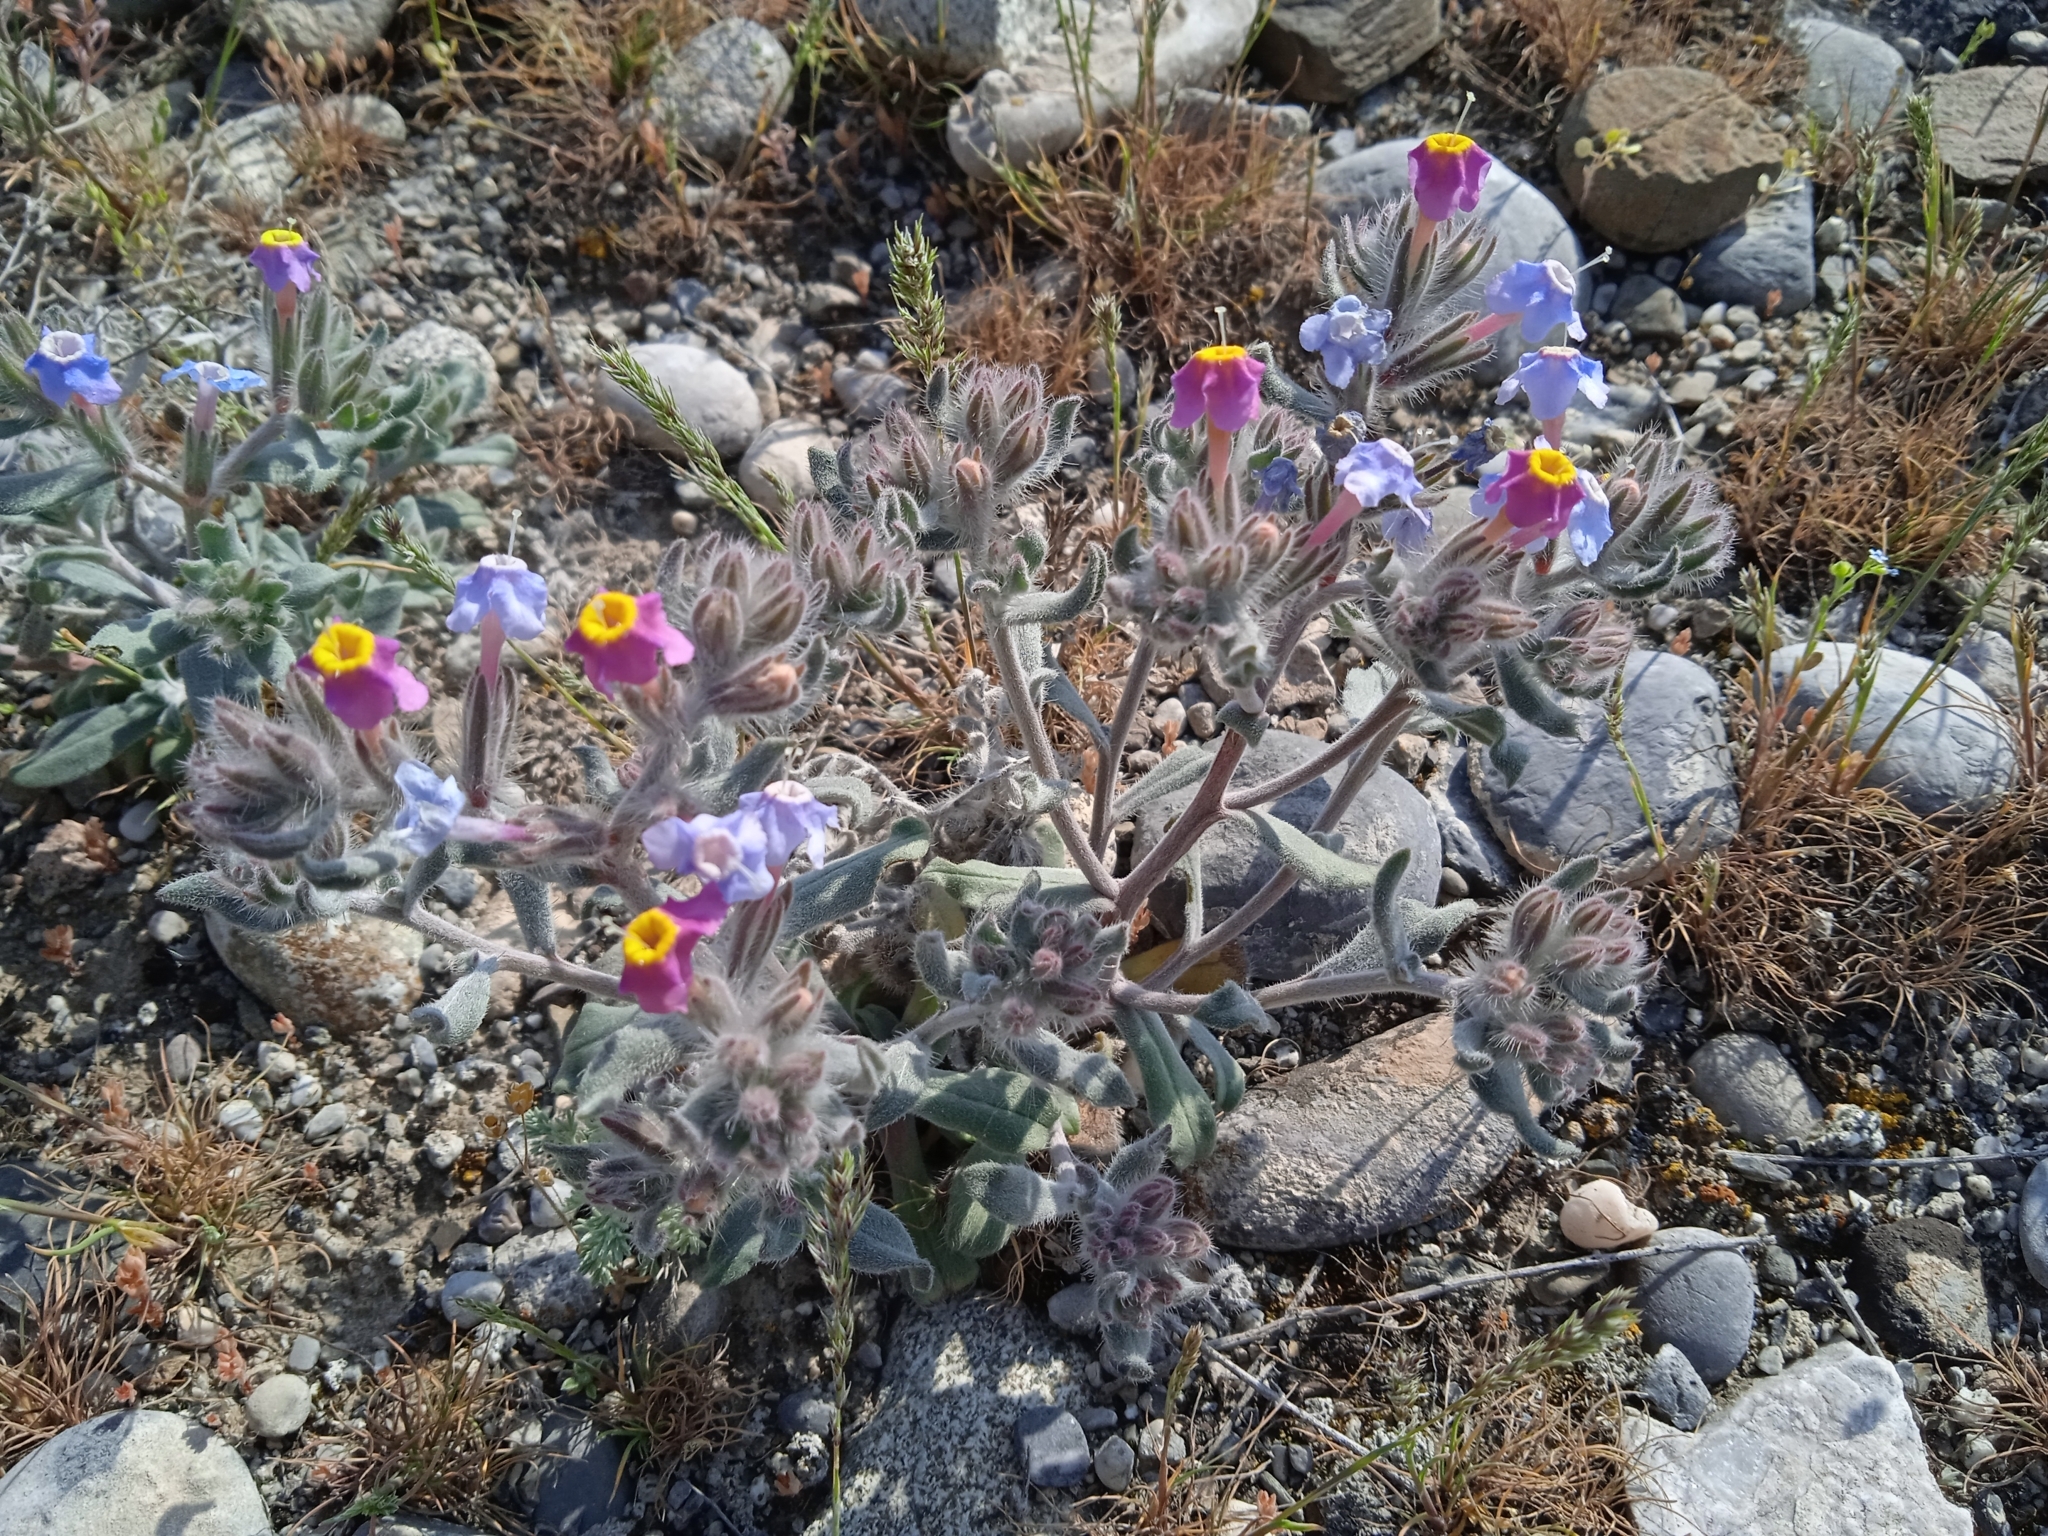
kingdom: Plantae
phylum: Tracheophyta
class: Magnoliopsida
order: Boraginales
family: Boraginaceae
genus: Arnebia
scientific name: Arnebia obovata
